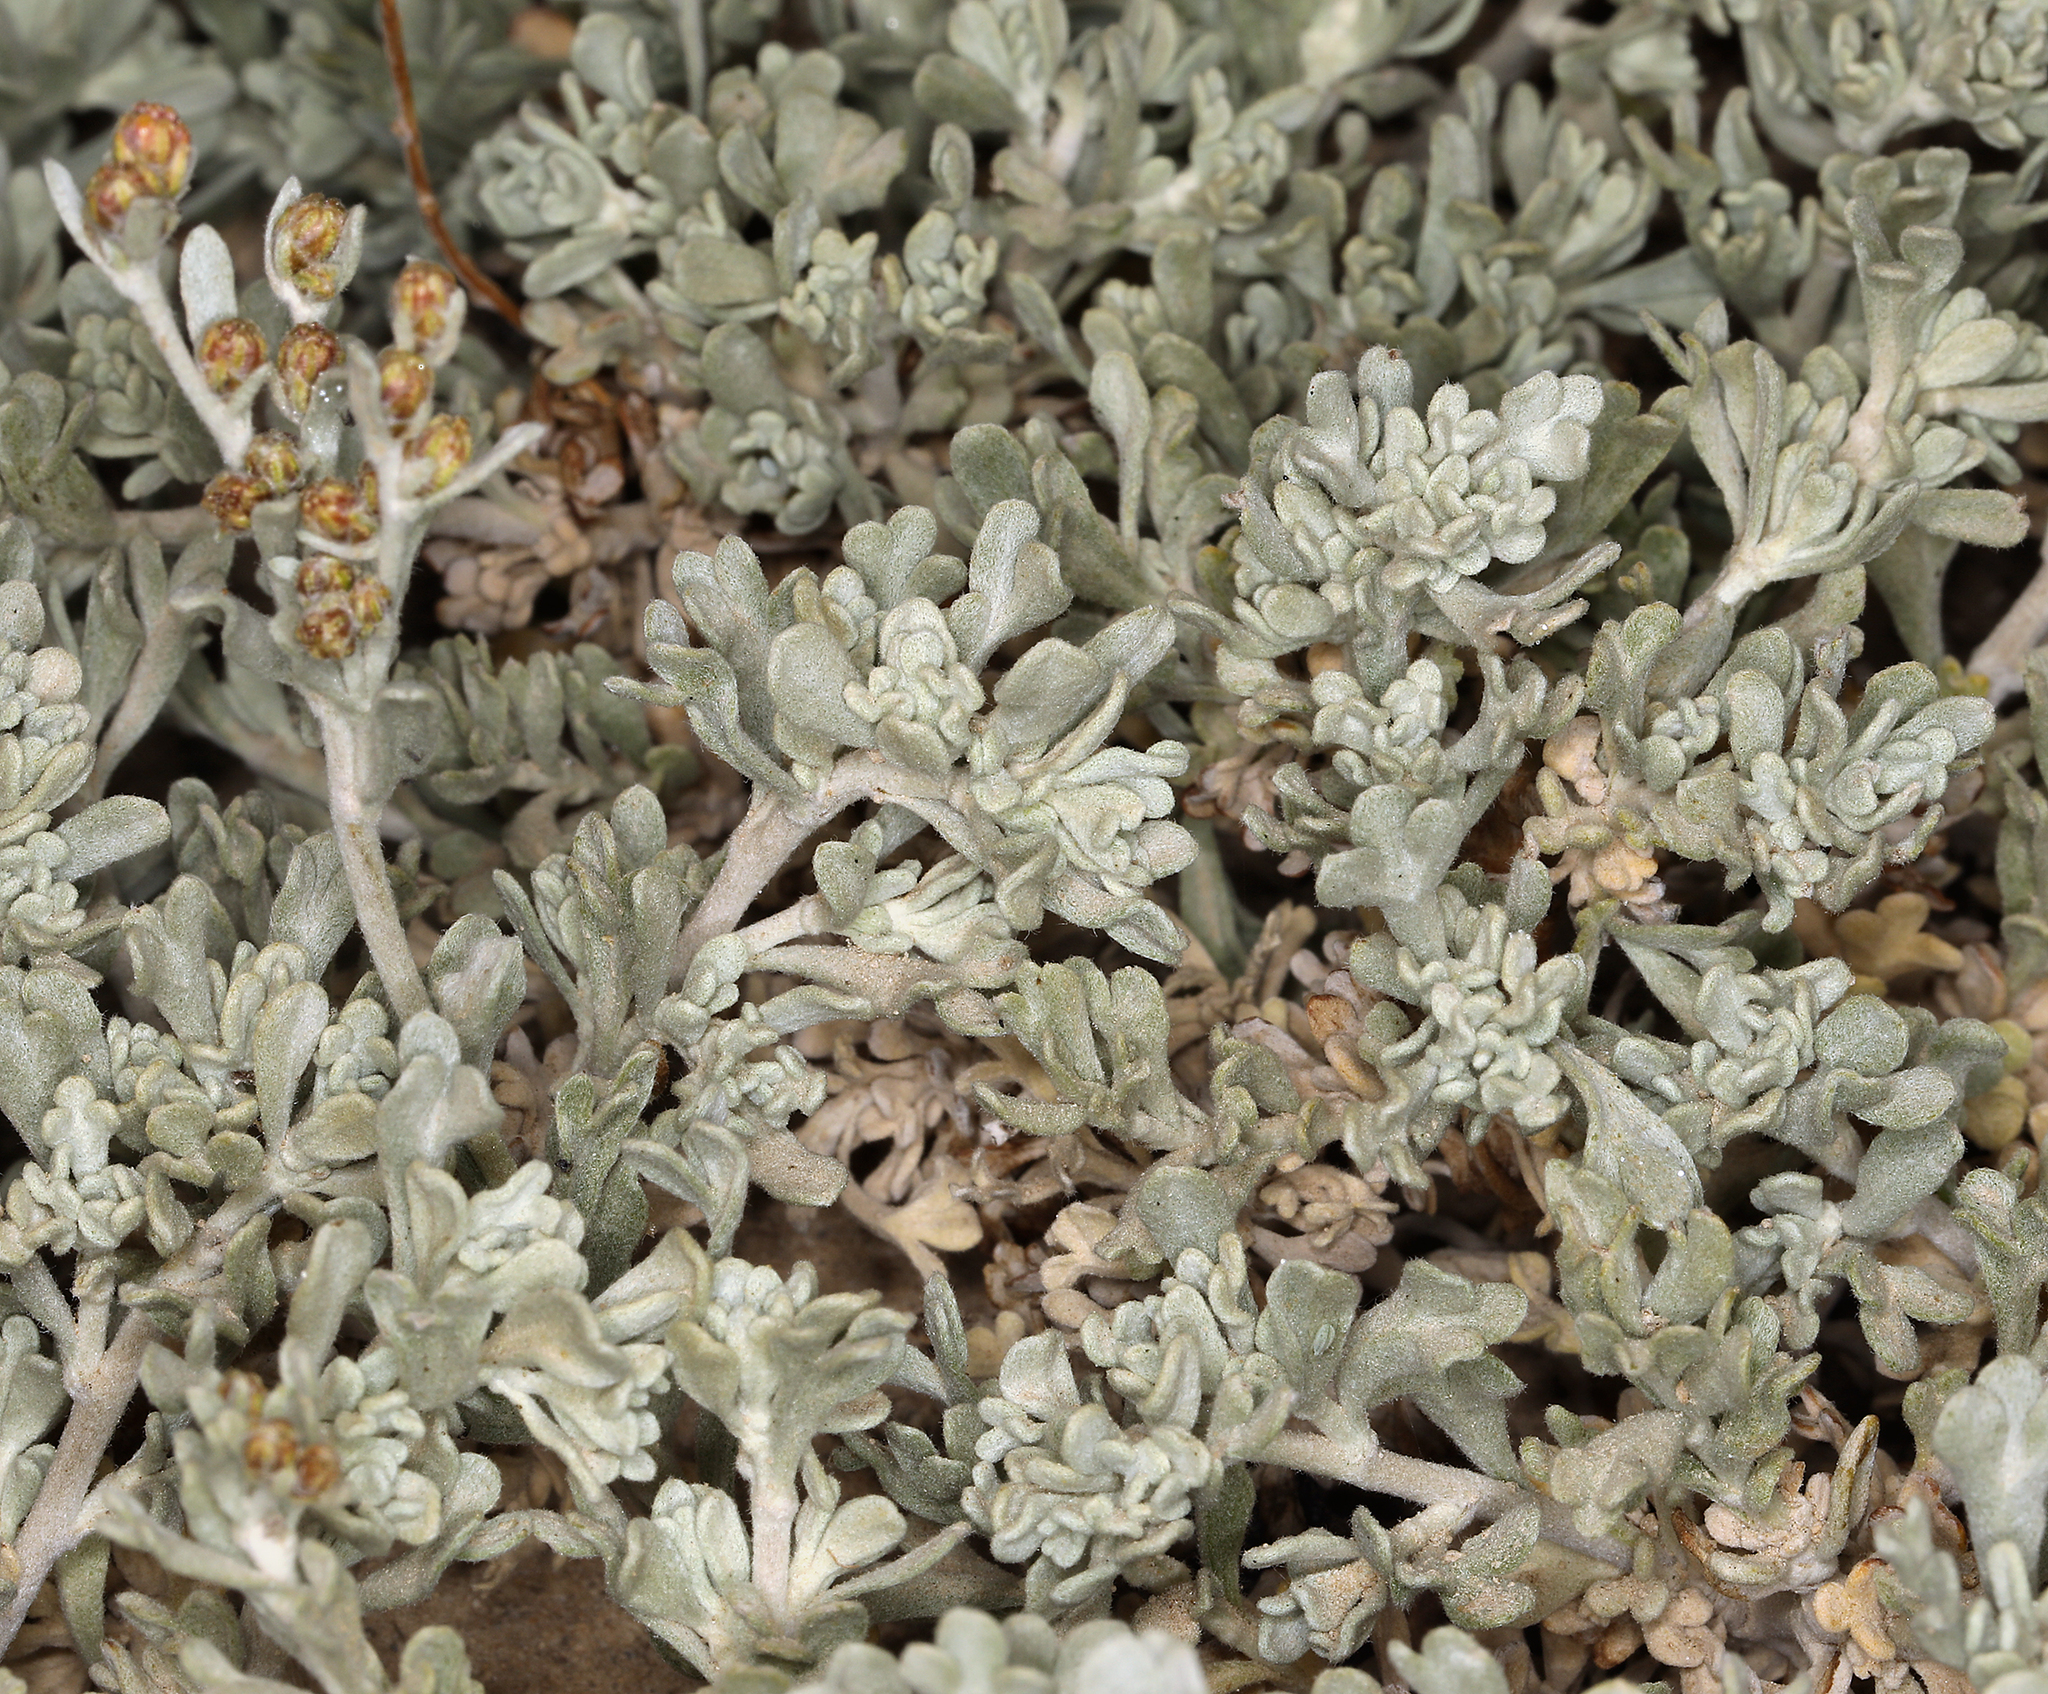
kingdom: Plantae
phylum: Tracheophyta
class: Magnoliopsida
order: Asterales
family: Asteraceae
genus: Artemisia
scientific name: Artemisia rothrockii
